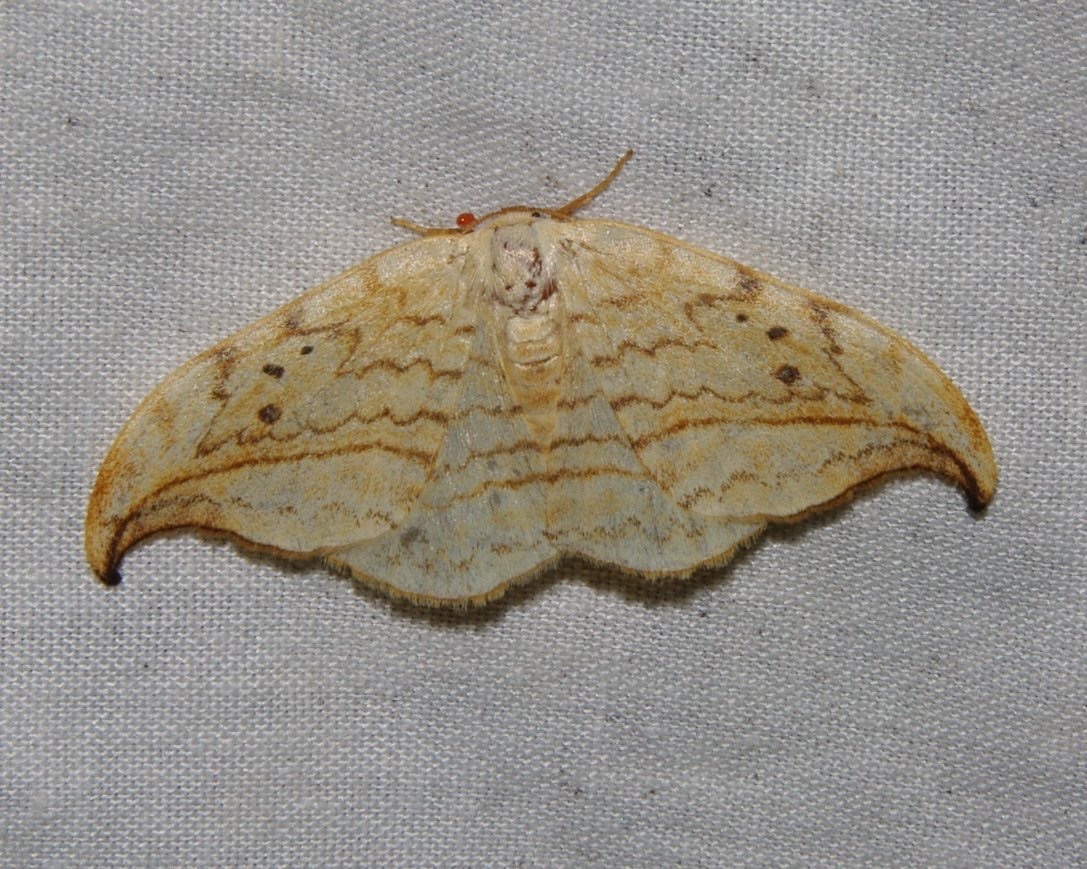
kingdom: Animalia
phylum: Arthropoda
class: Insecta
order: Lepidoptera
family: Drepanidae
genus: Drepana
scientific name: Drepana arcuata
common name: Arched hooktip moth
